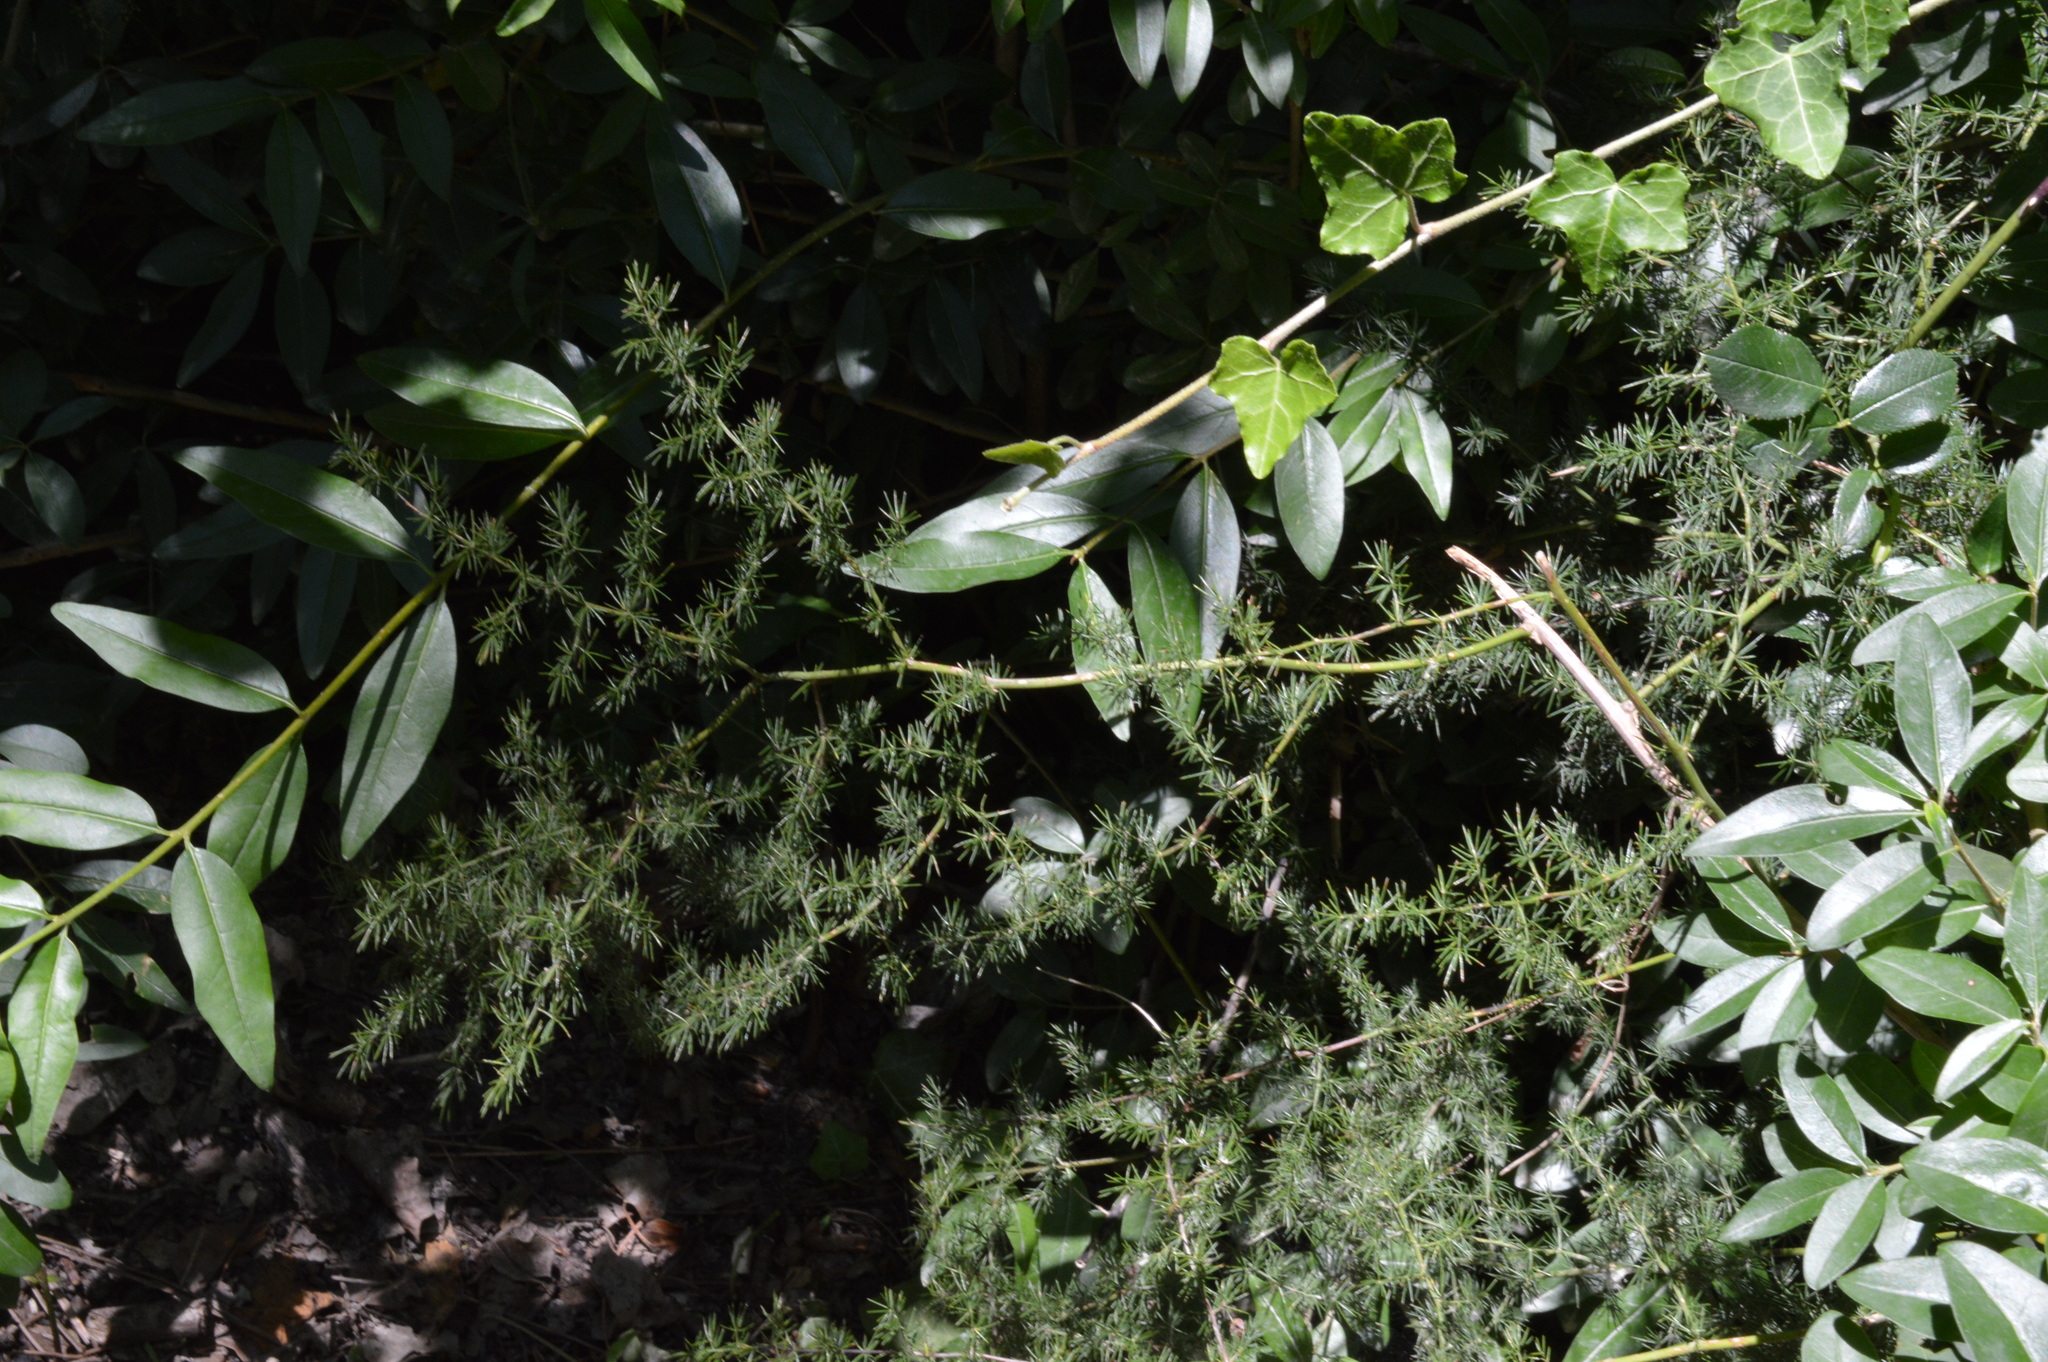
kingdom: Plantae
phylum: Tracheophyta
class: Liliopsida
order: Asparagales
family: Asparagaceae
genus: Asparagus
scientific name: Asparagus acutifolius
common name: Wild asparagus
